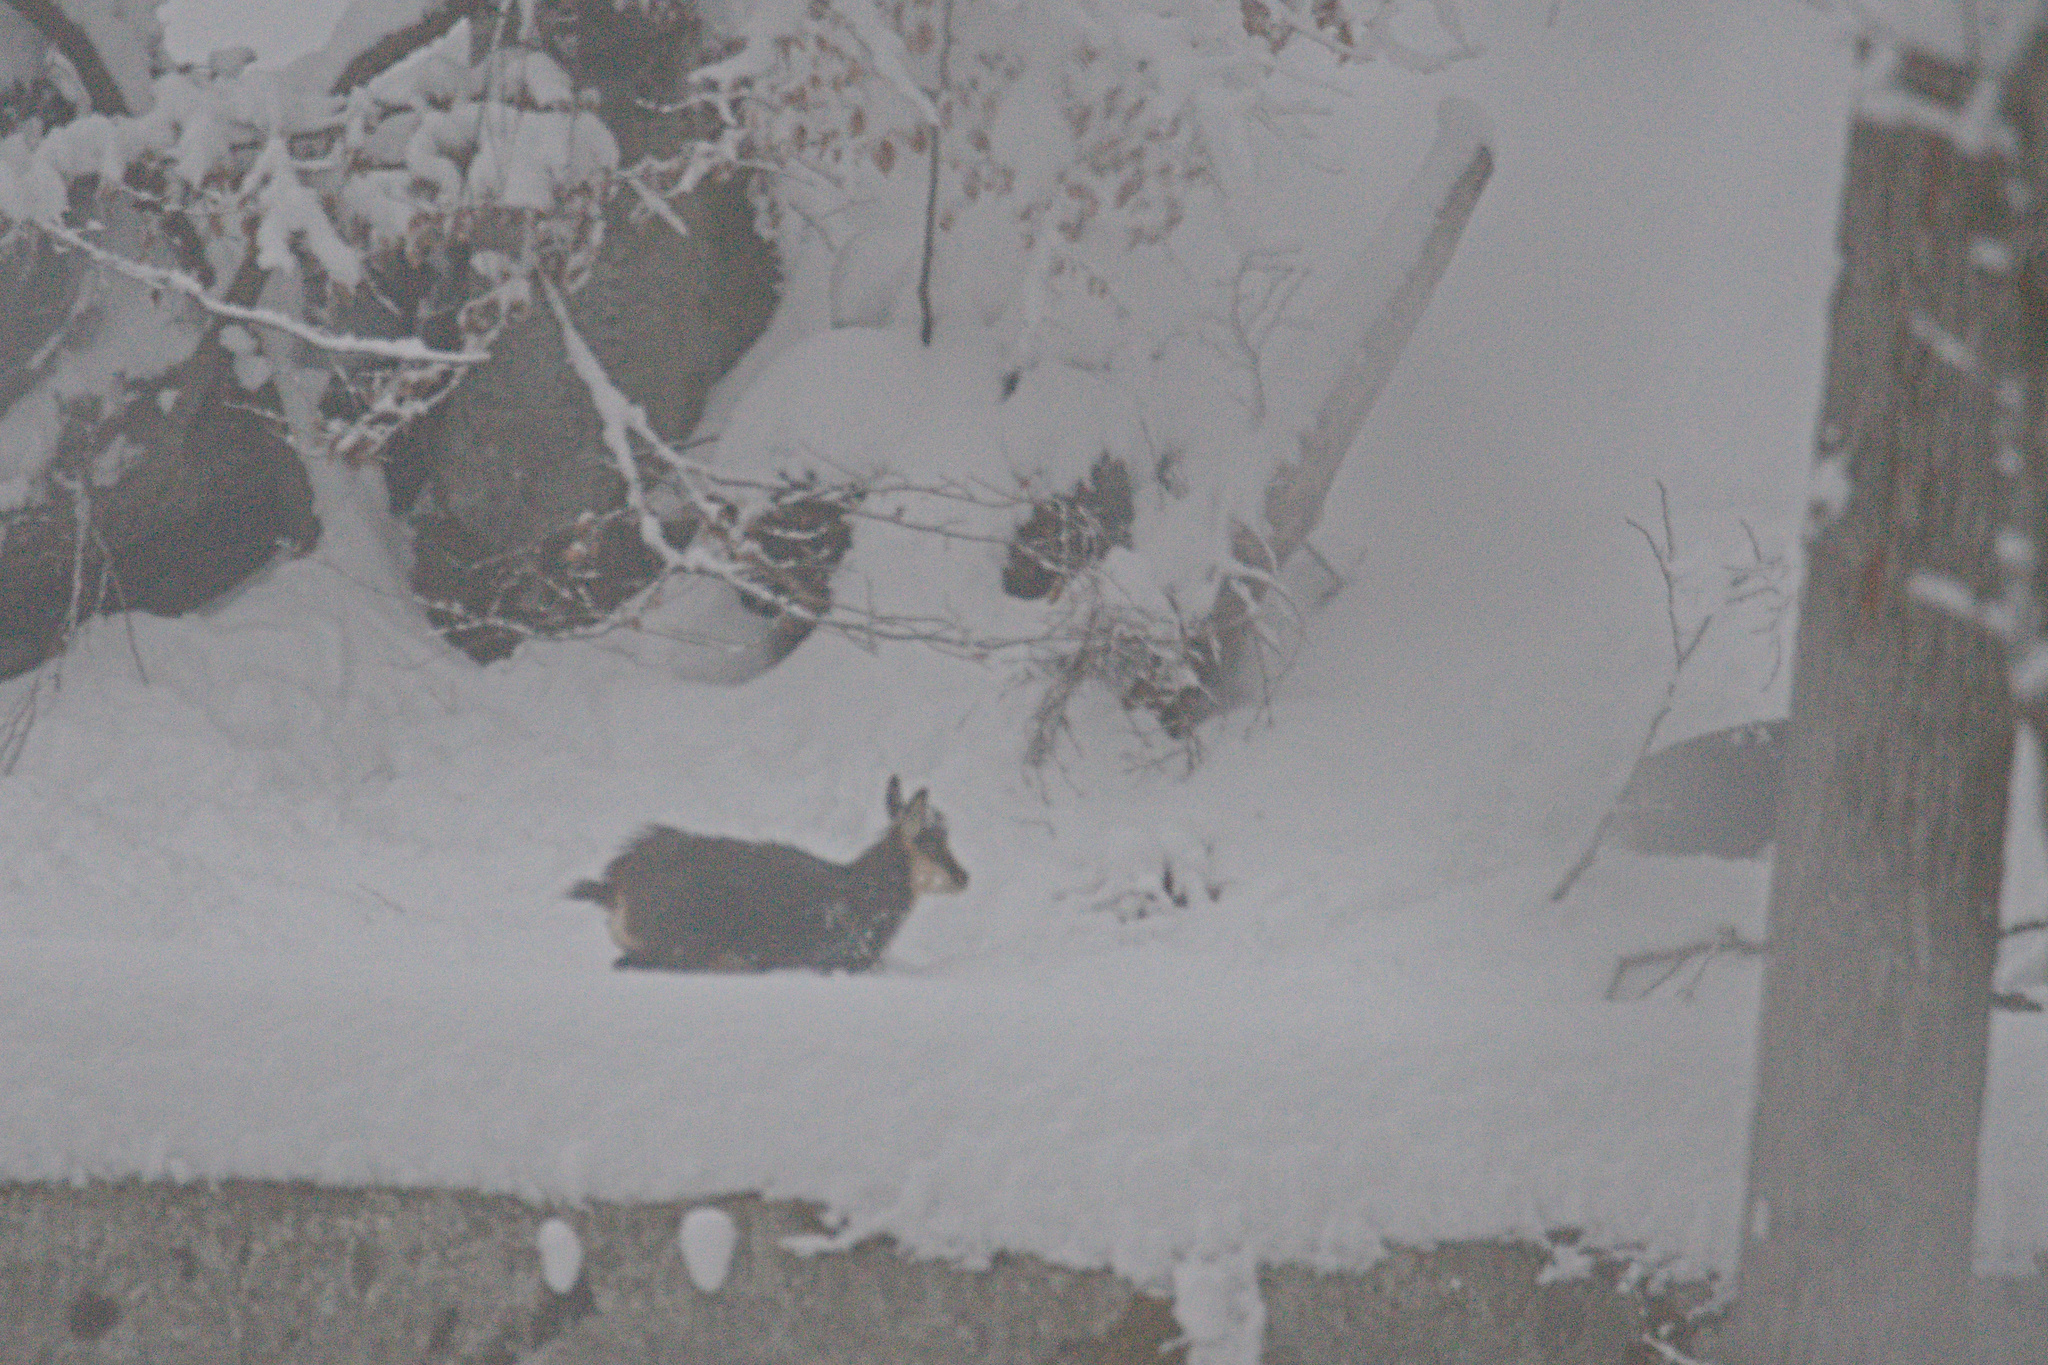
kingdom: Animalia
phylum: Chordata
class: Mammalia
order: Artiodactyla
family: Bovidae
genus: Rupicapra
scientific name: Rupicapra rupicapra
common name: Chamois
